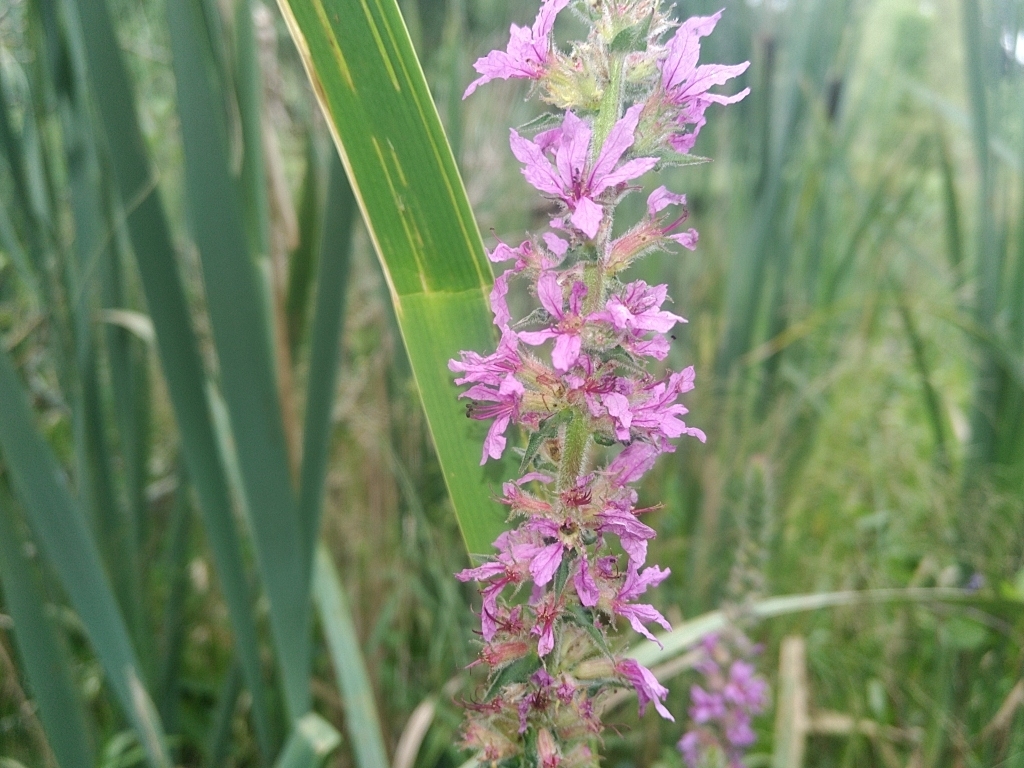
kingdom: Plantae
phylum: Tracheophyta
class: Magnoliopsida
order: Myrtales
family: Lythraceae
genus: Lythrum
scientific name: Lythrum salicaria
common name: Purple loosestrife
